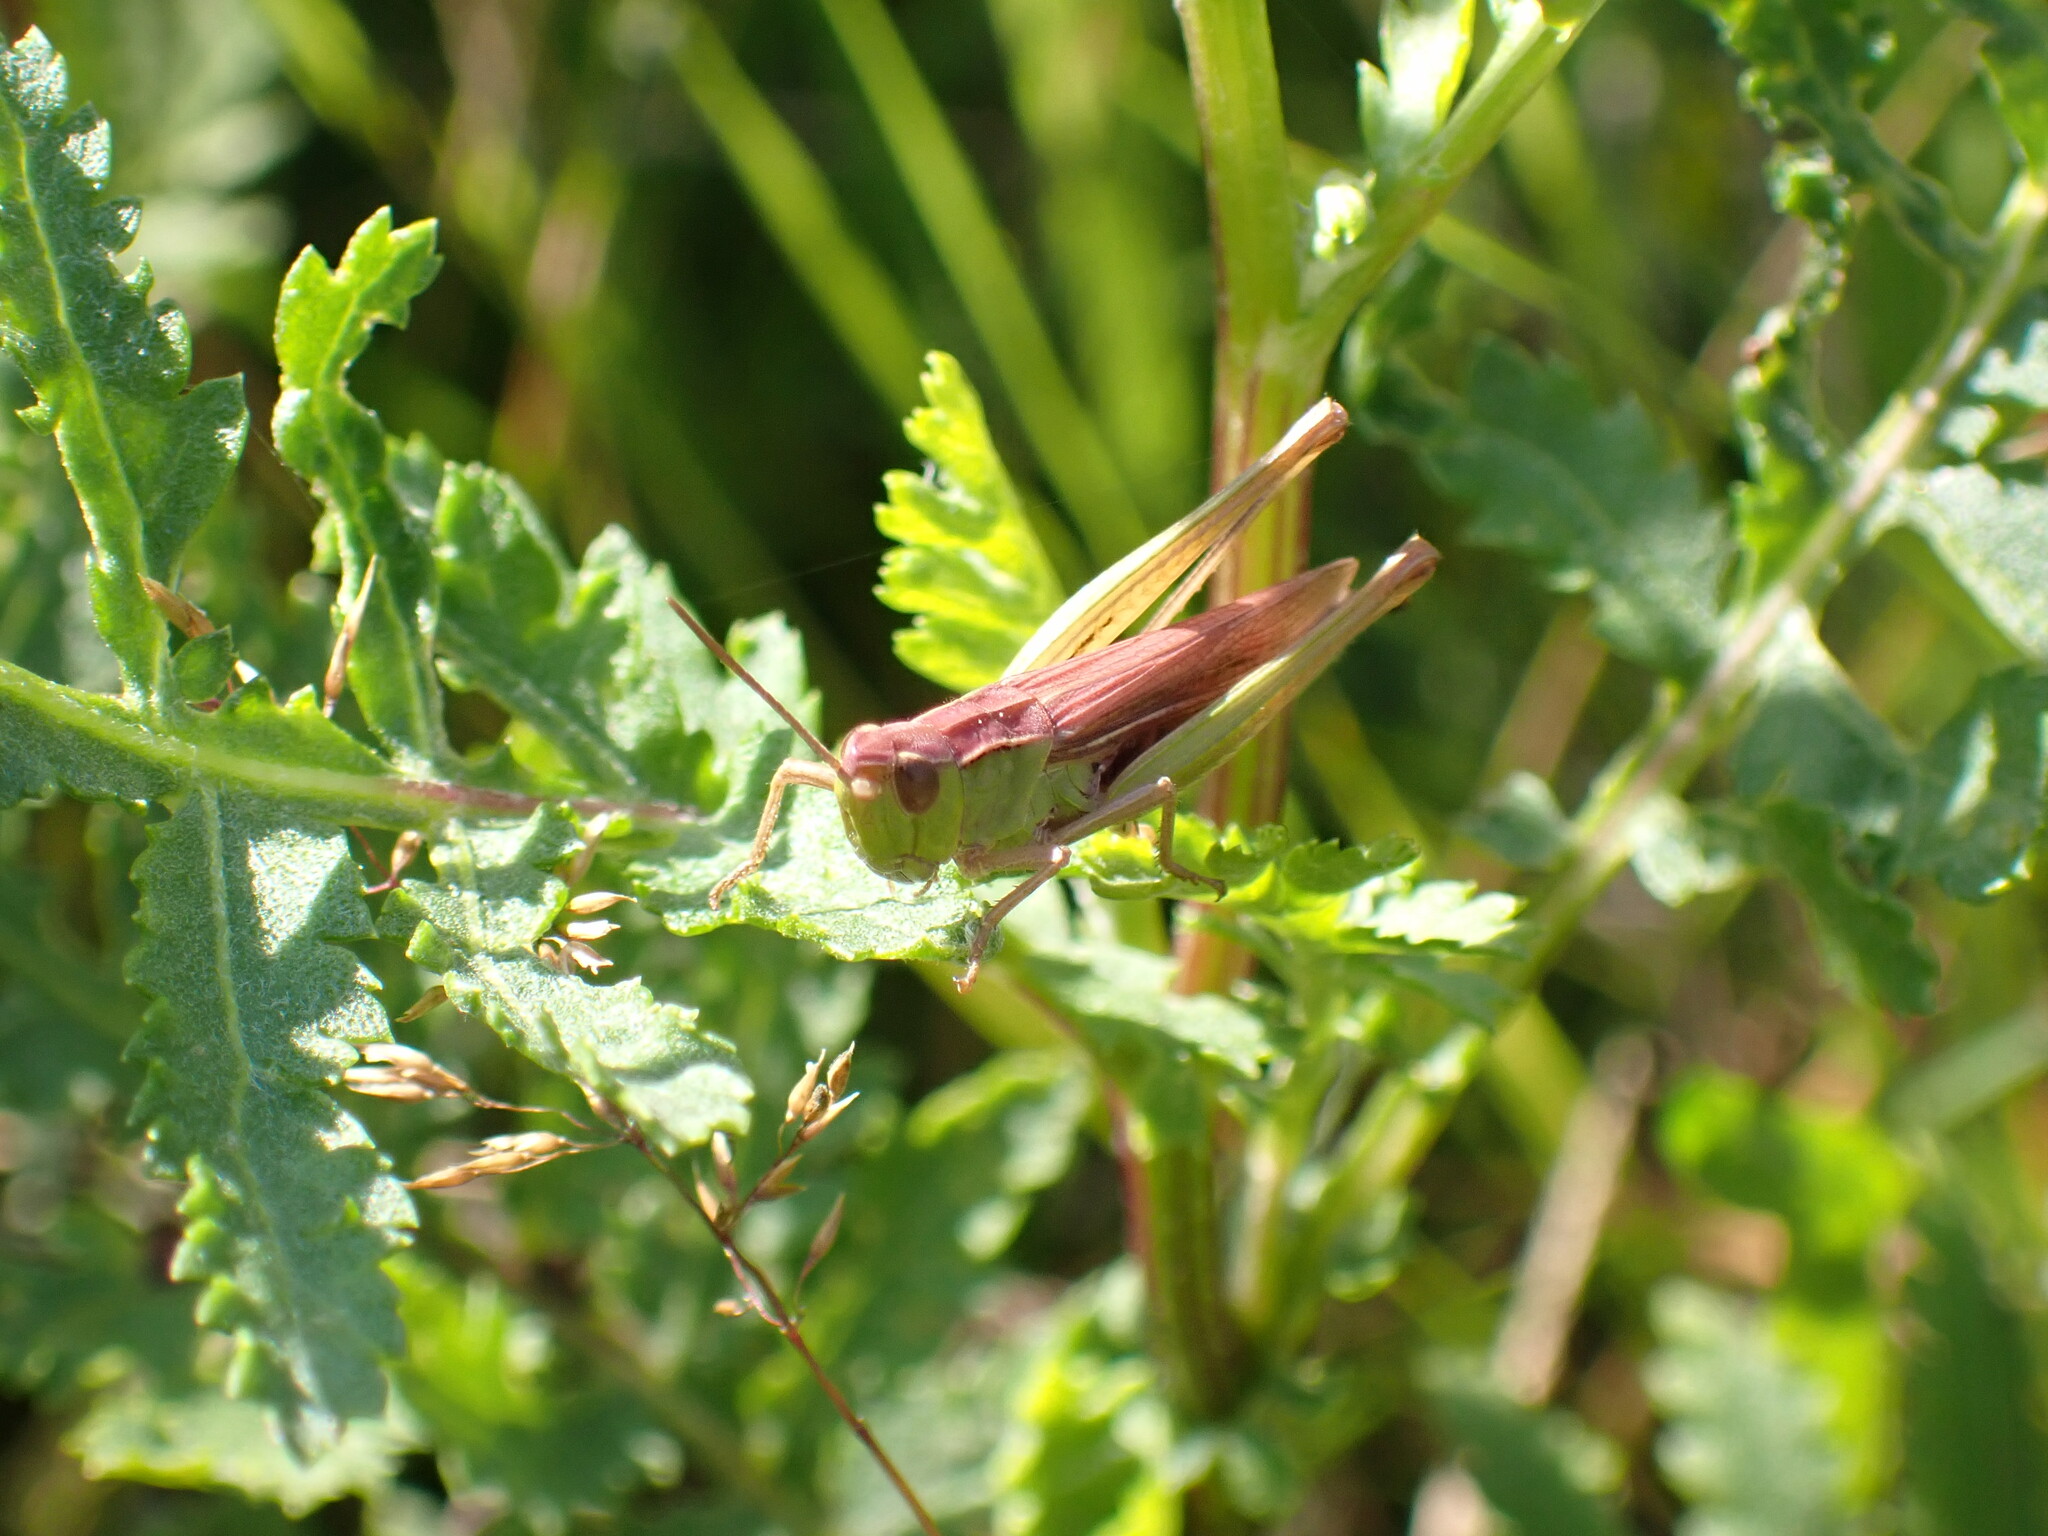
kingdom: Animalia
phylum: Arthropoda
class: Insecta
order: Orthoptera
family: Acrididae
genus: Chorthippus
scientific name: Chorthippus albomarginatus
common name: Lesser marsh grasshopper
